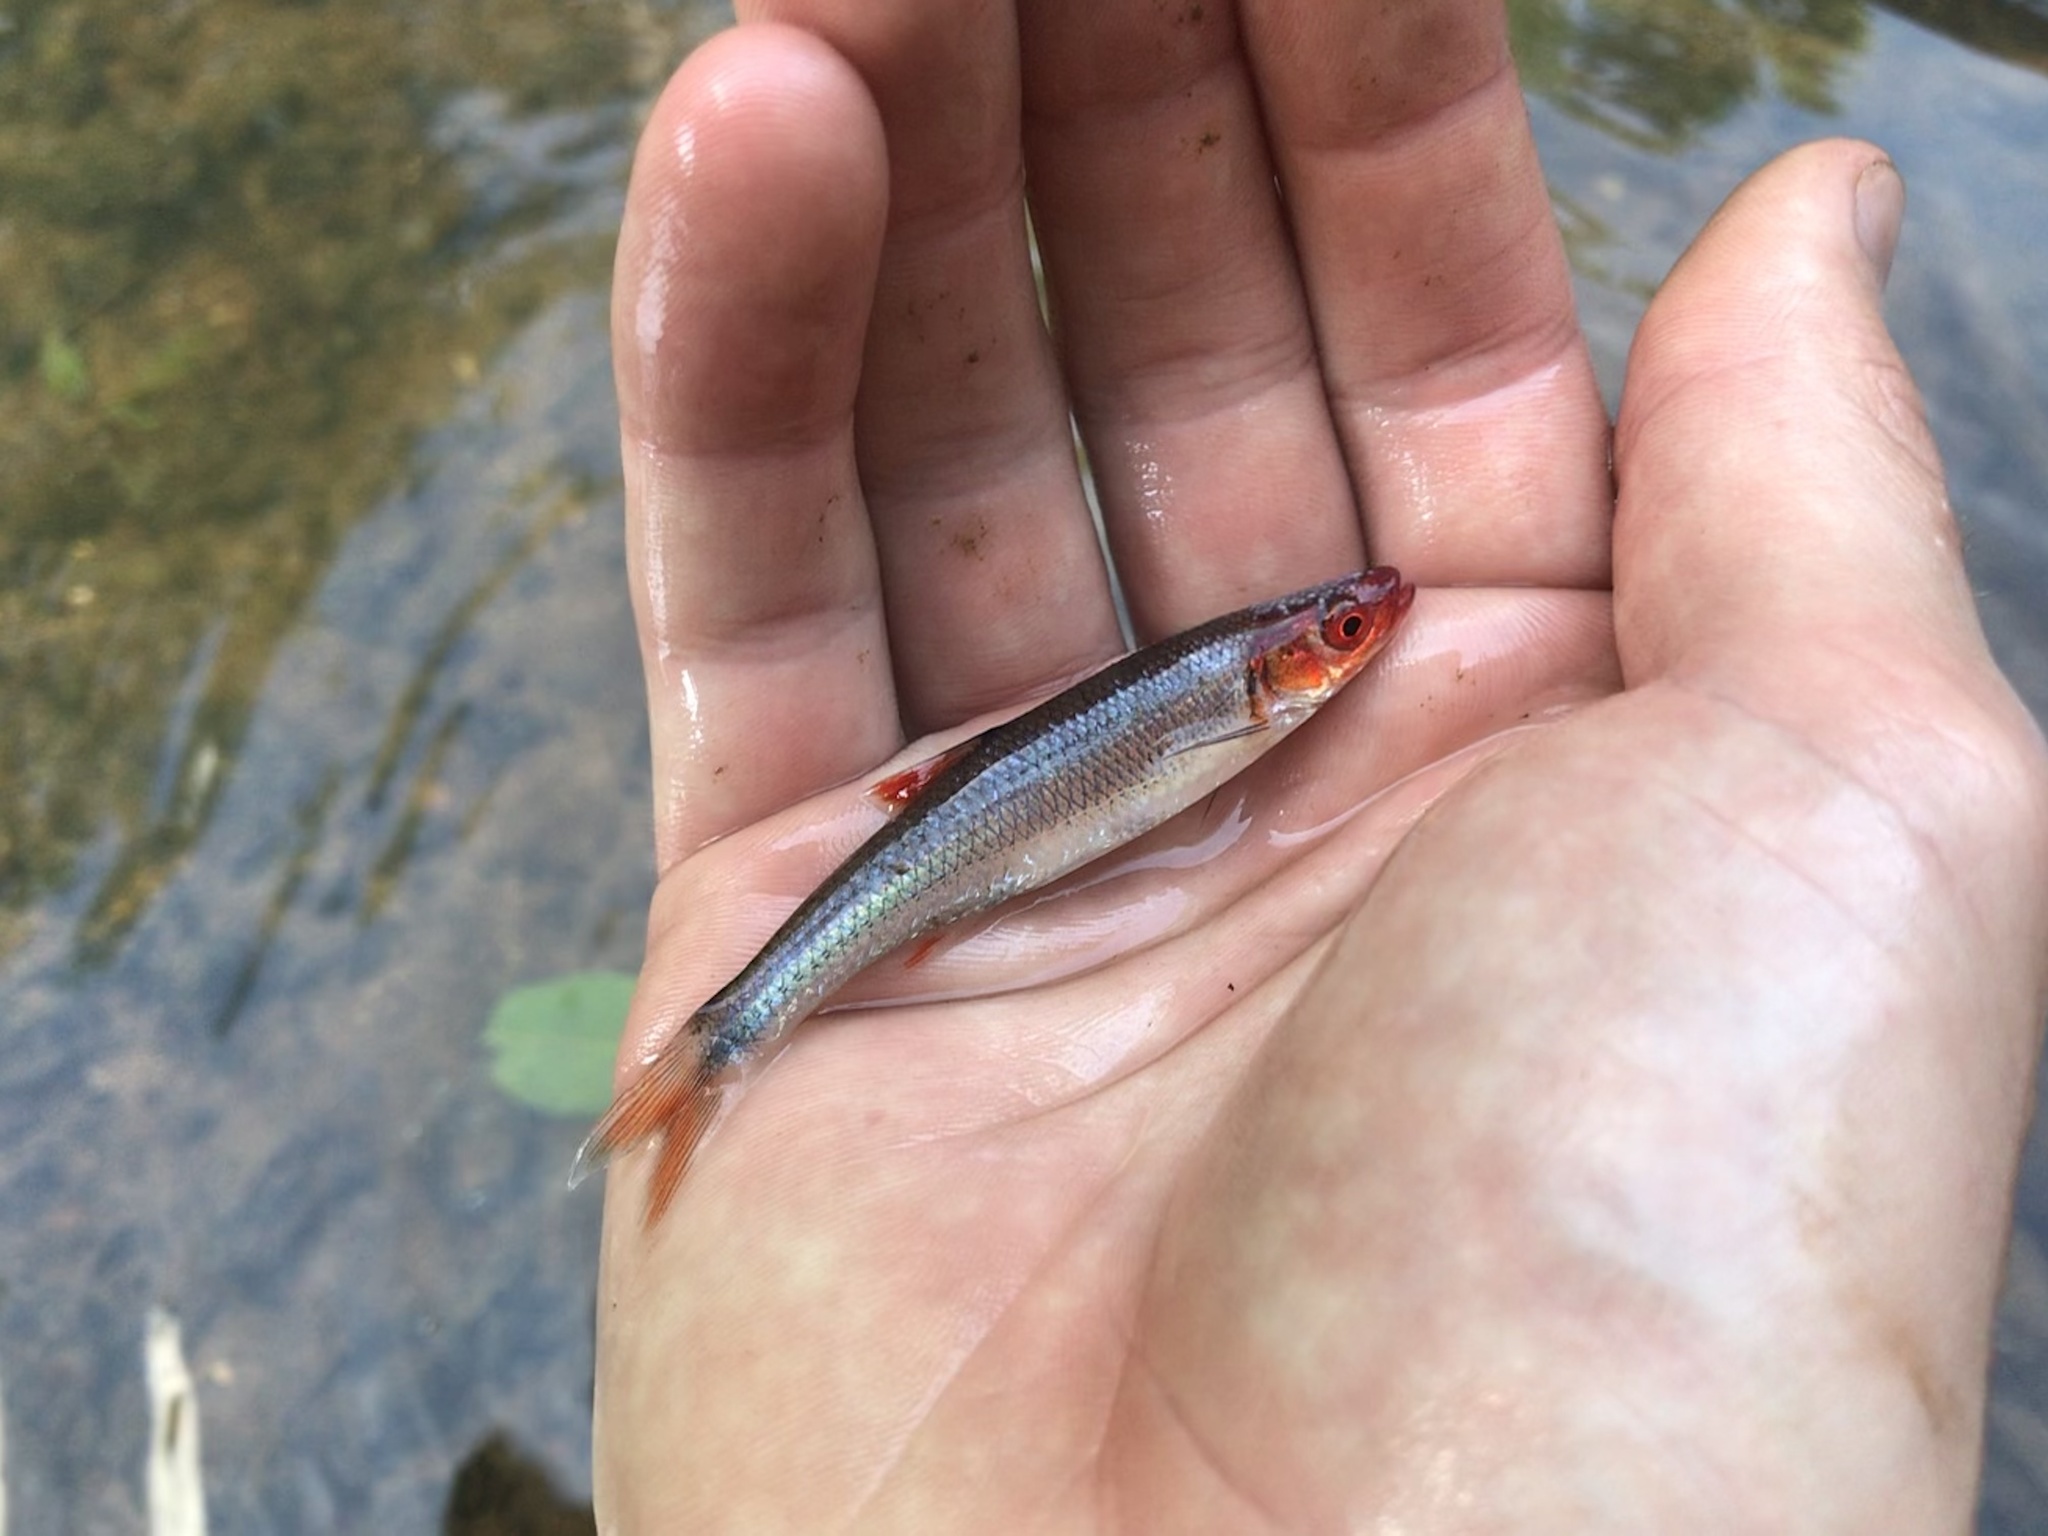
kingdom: Animalia
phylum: Chordata
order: Cypriniformes
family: Cyprinidae
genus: Lythrurus
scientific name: Lythrurus matutinus
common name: Pinewoods shiner
